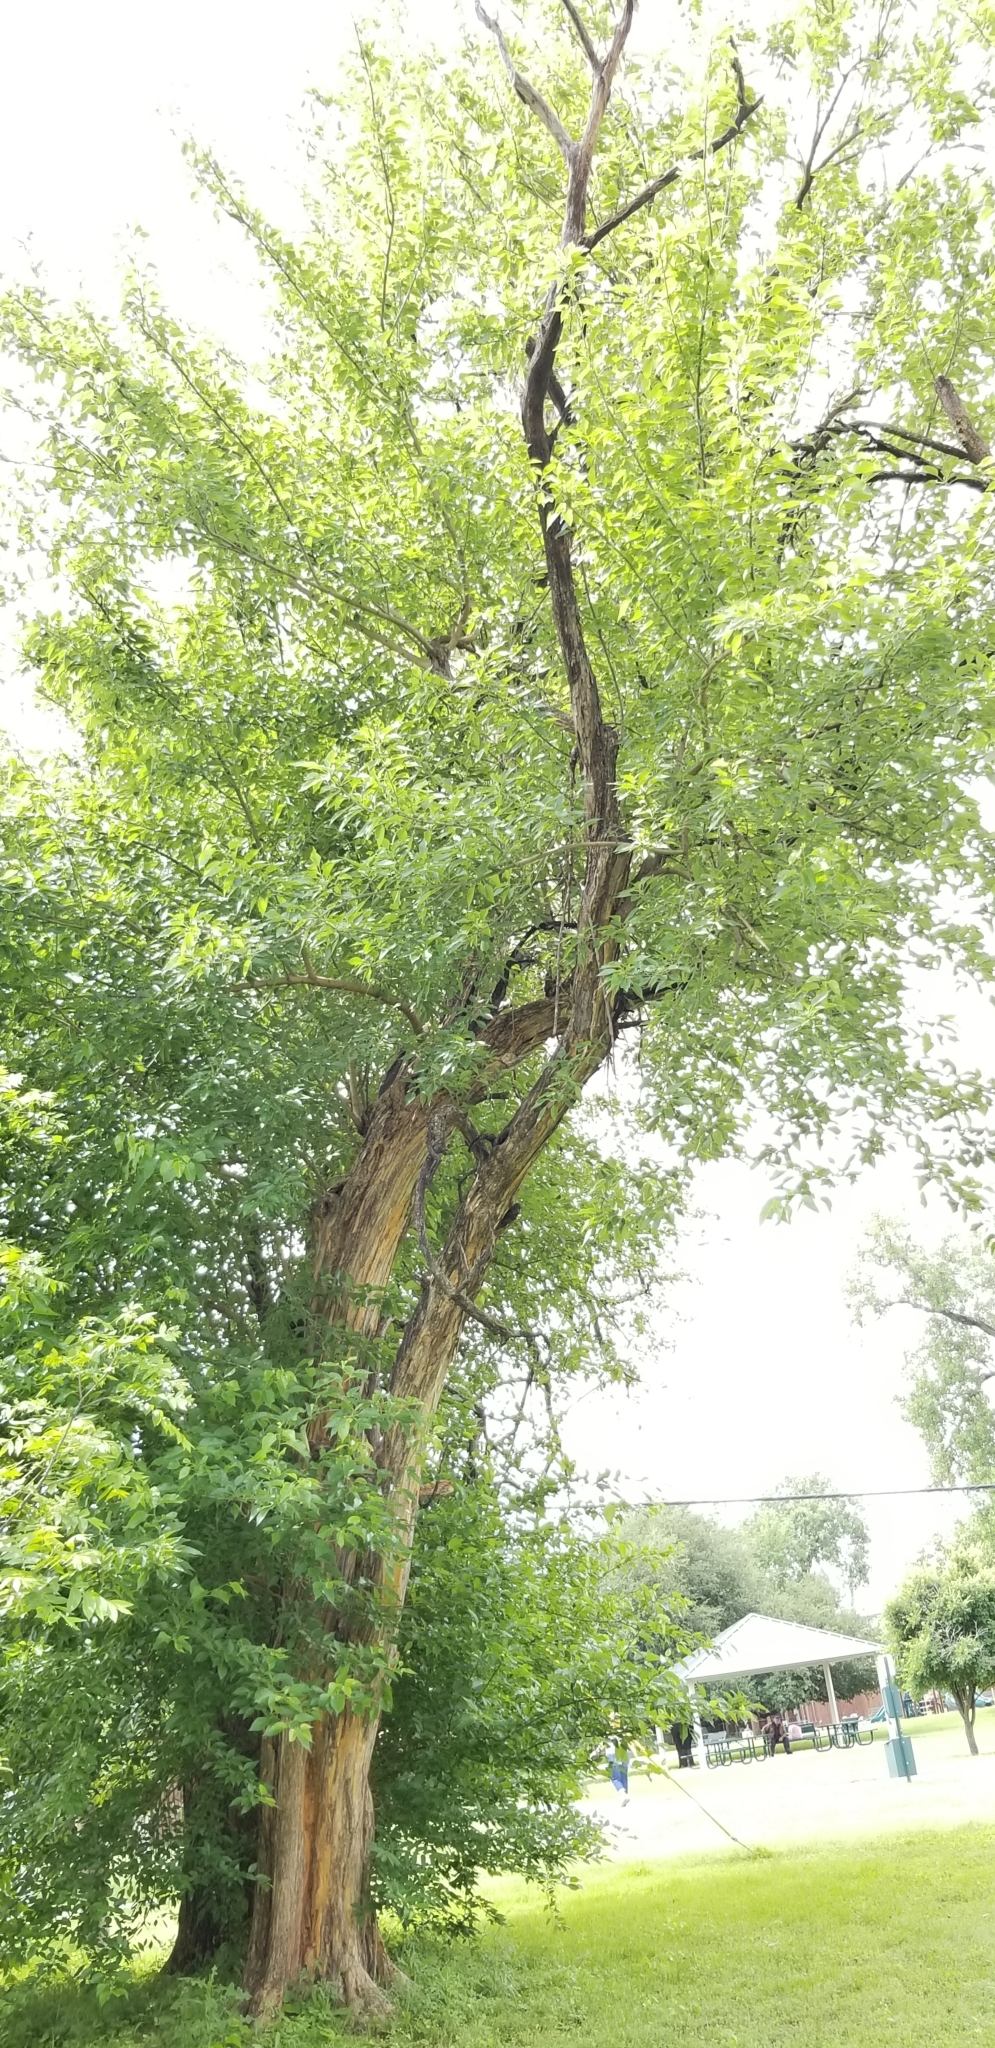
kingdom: Plantae
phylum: Tracheophyta
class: Magnoliopsida
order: Rosales
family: Moraceae
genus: Maclura
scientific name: Maclura pomifera
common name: Osage-orange
